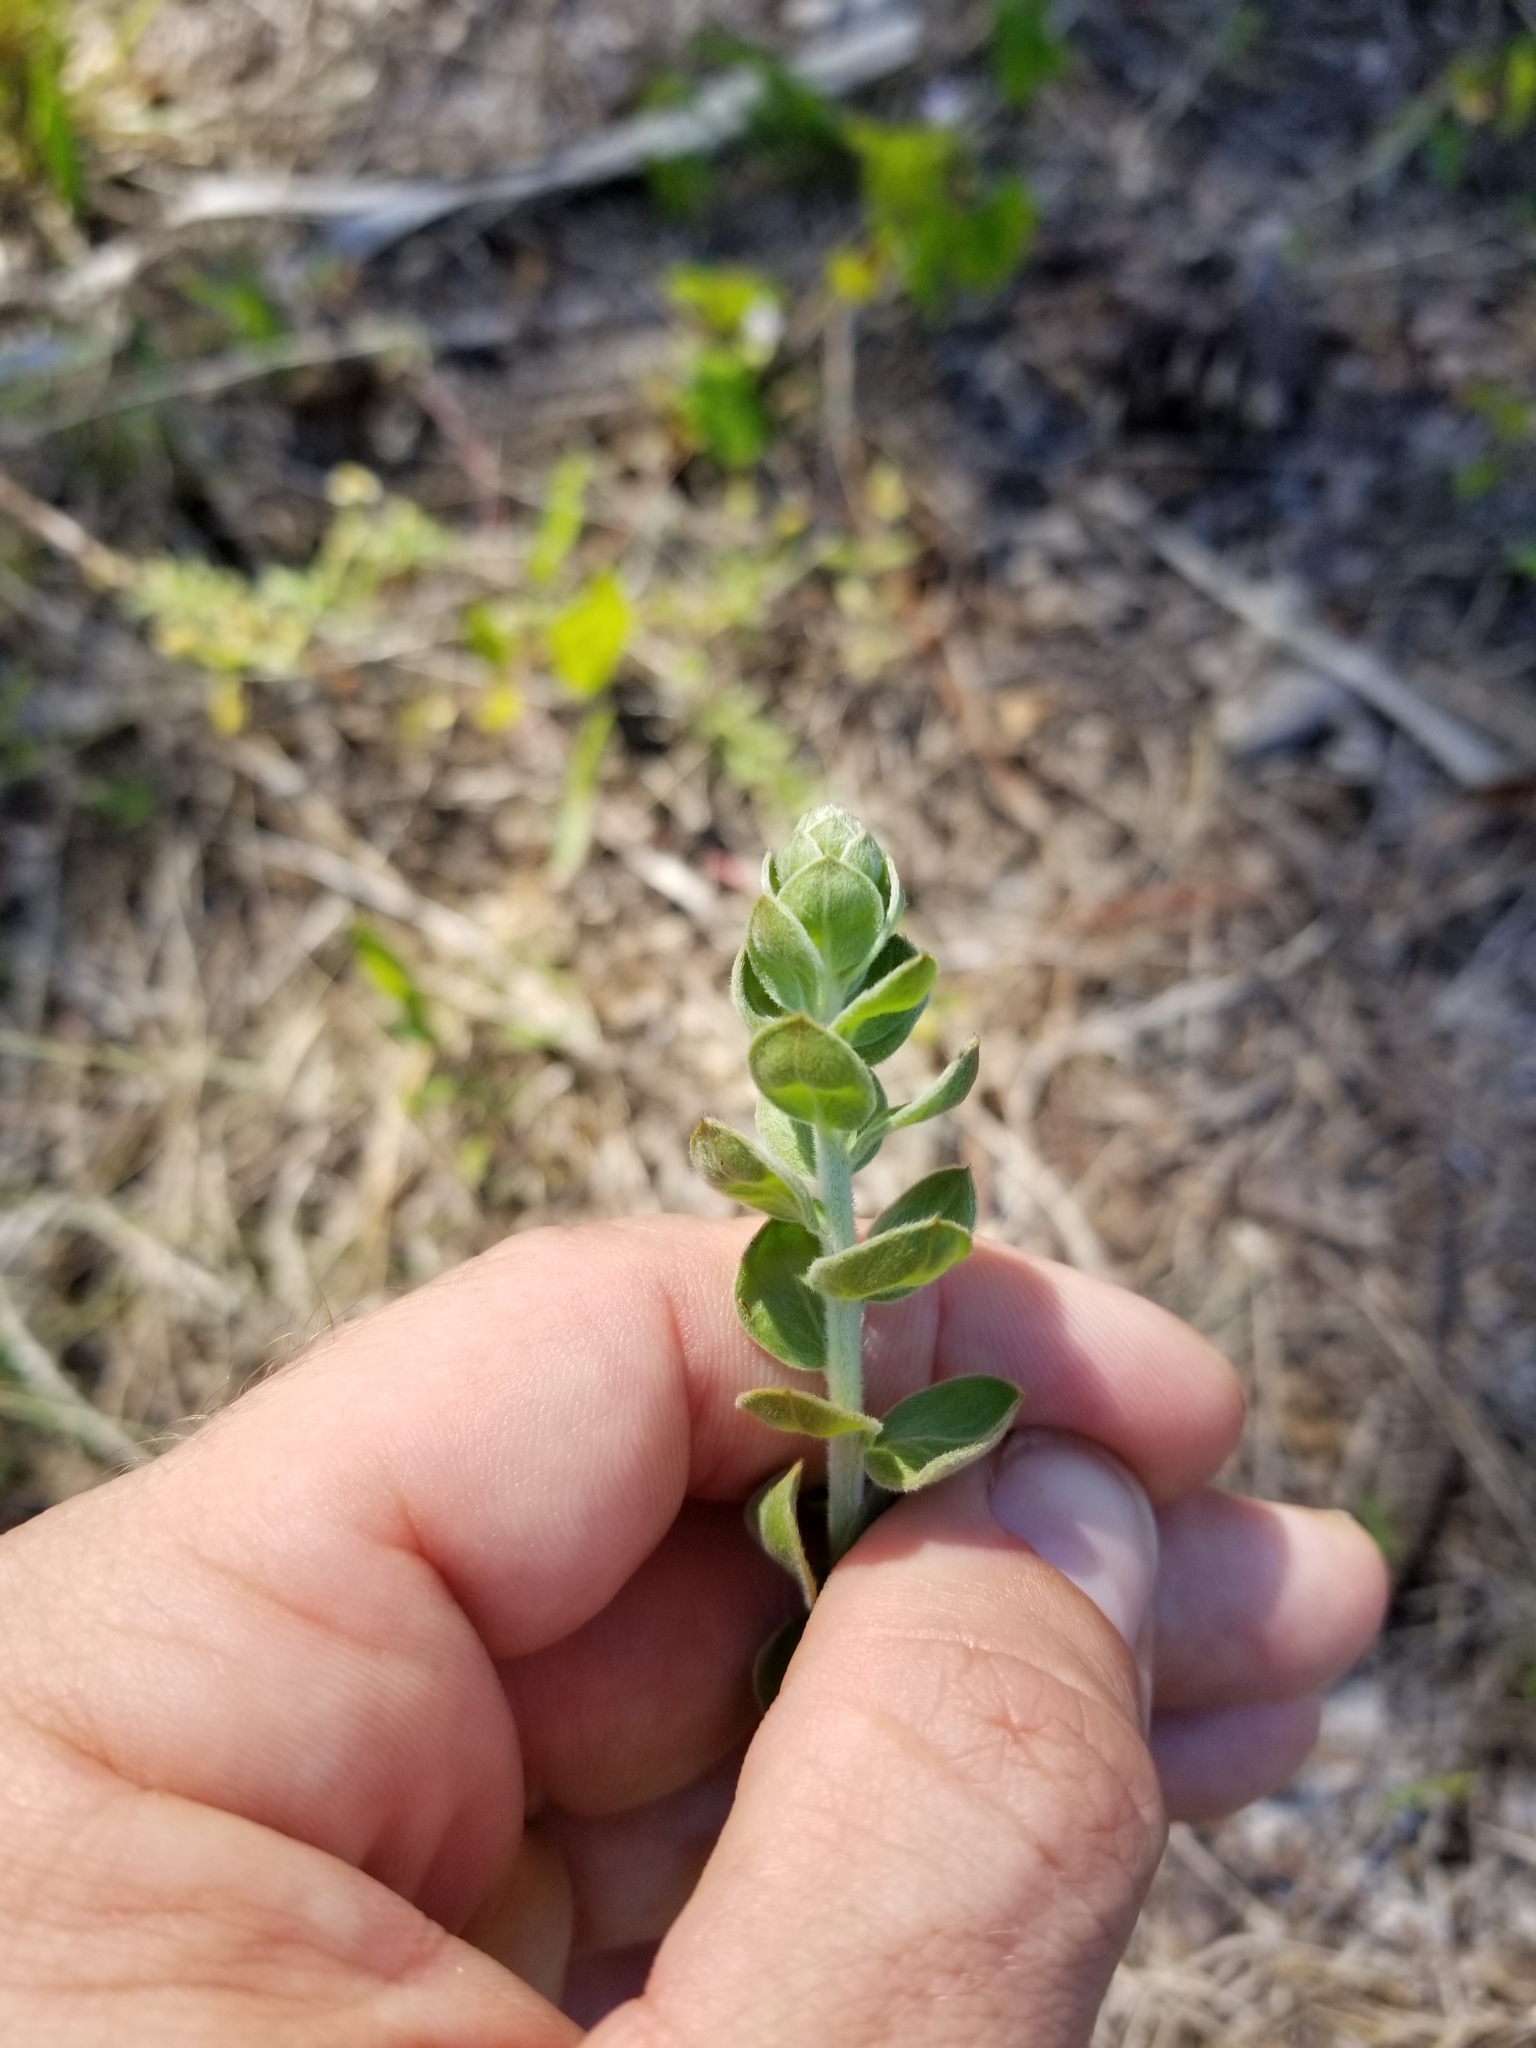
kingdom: Plantae
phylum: Tracheophyta
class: Magnoliopsida
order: Malvales
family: Cistaceae
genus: Lechea
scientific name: Lechea cernua
